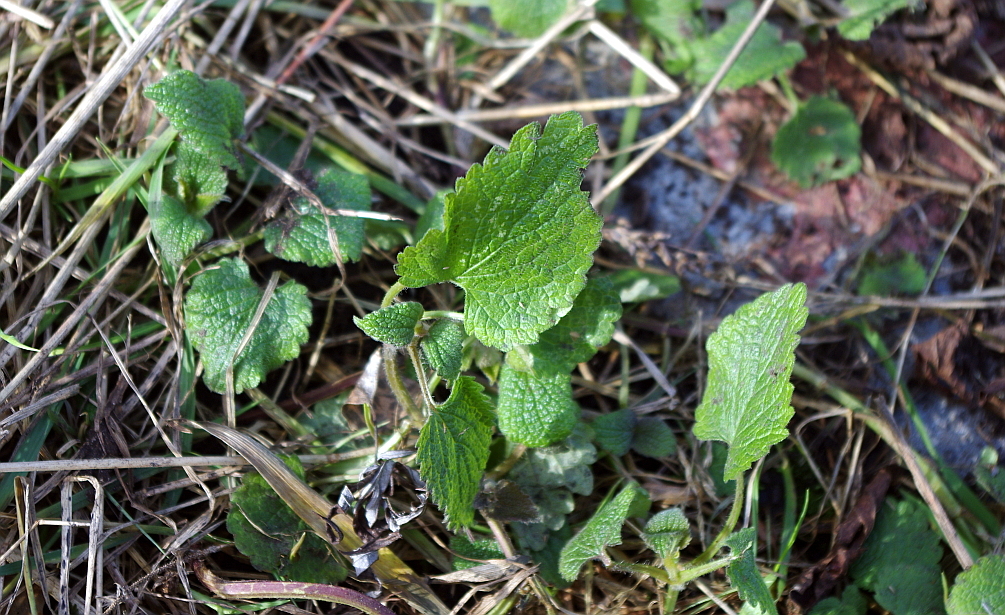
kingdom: Plantae
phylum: Tracheophyta
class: Magnoliopsida
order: Lamiales
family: Lamiaceae
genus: Lamium
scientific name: Lamium album
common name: White dead-nettle
